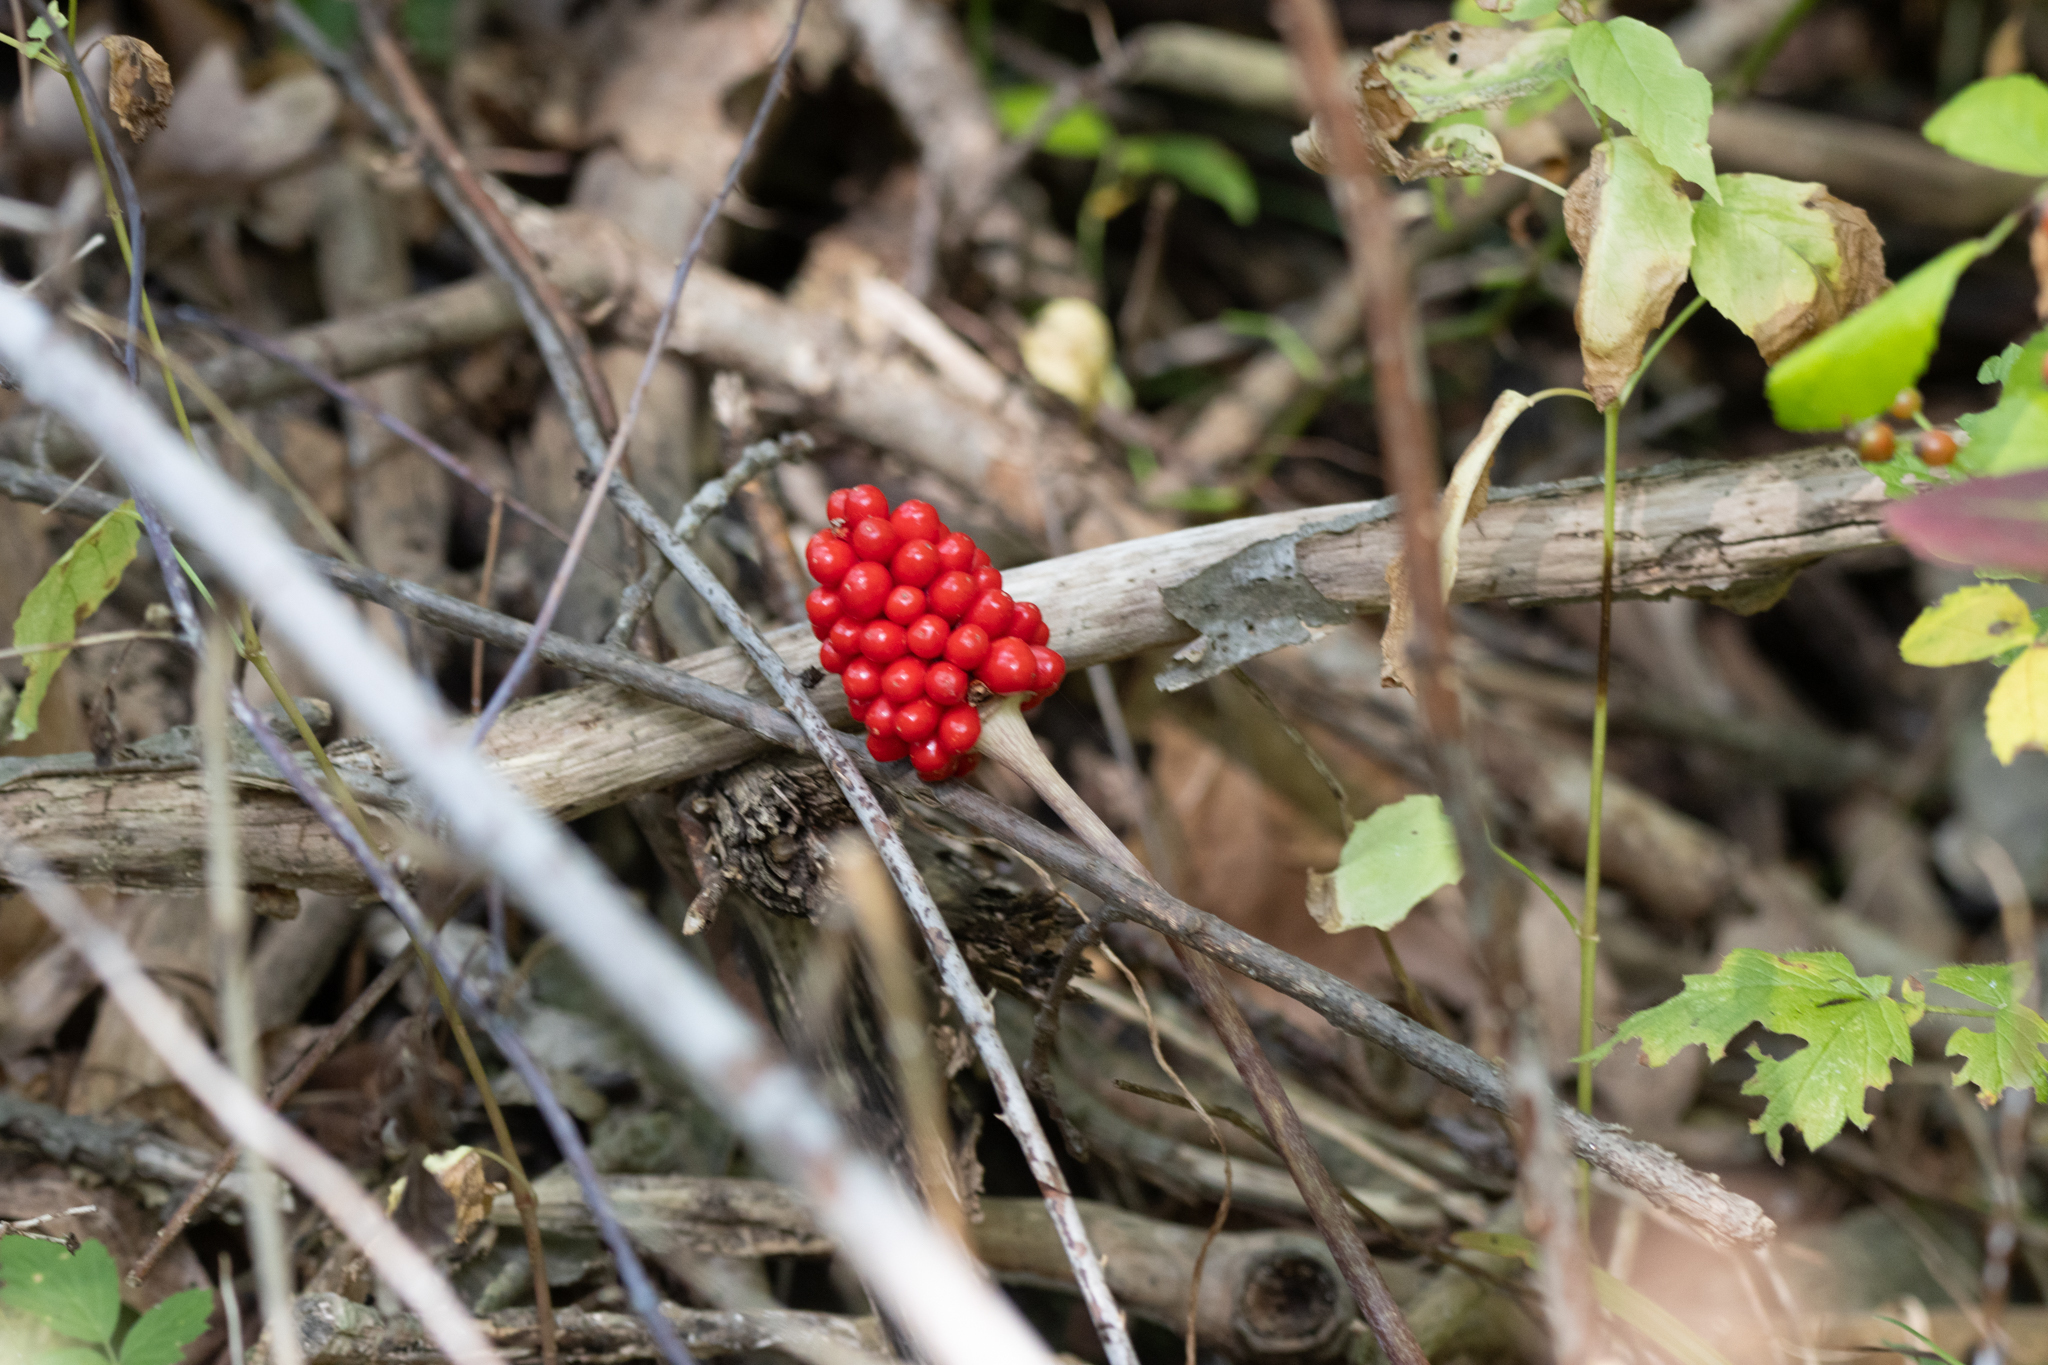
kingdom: Plantae
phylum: Tracheophyta
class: Liliopsida
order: Alismatales
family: Araceae
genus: Arisaema
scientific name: Arisaema triphyllum
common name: Jack-in-the-pulpit
